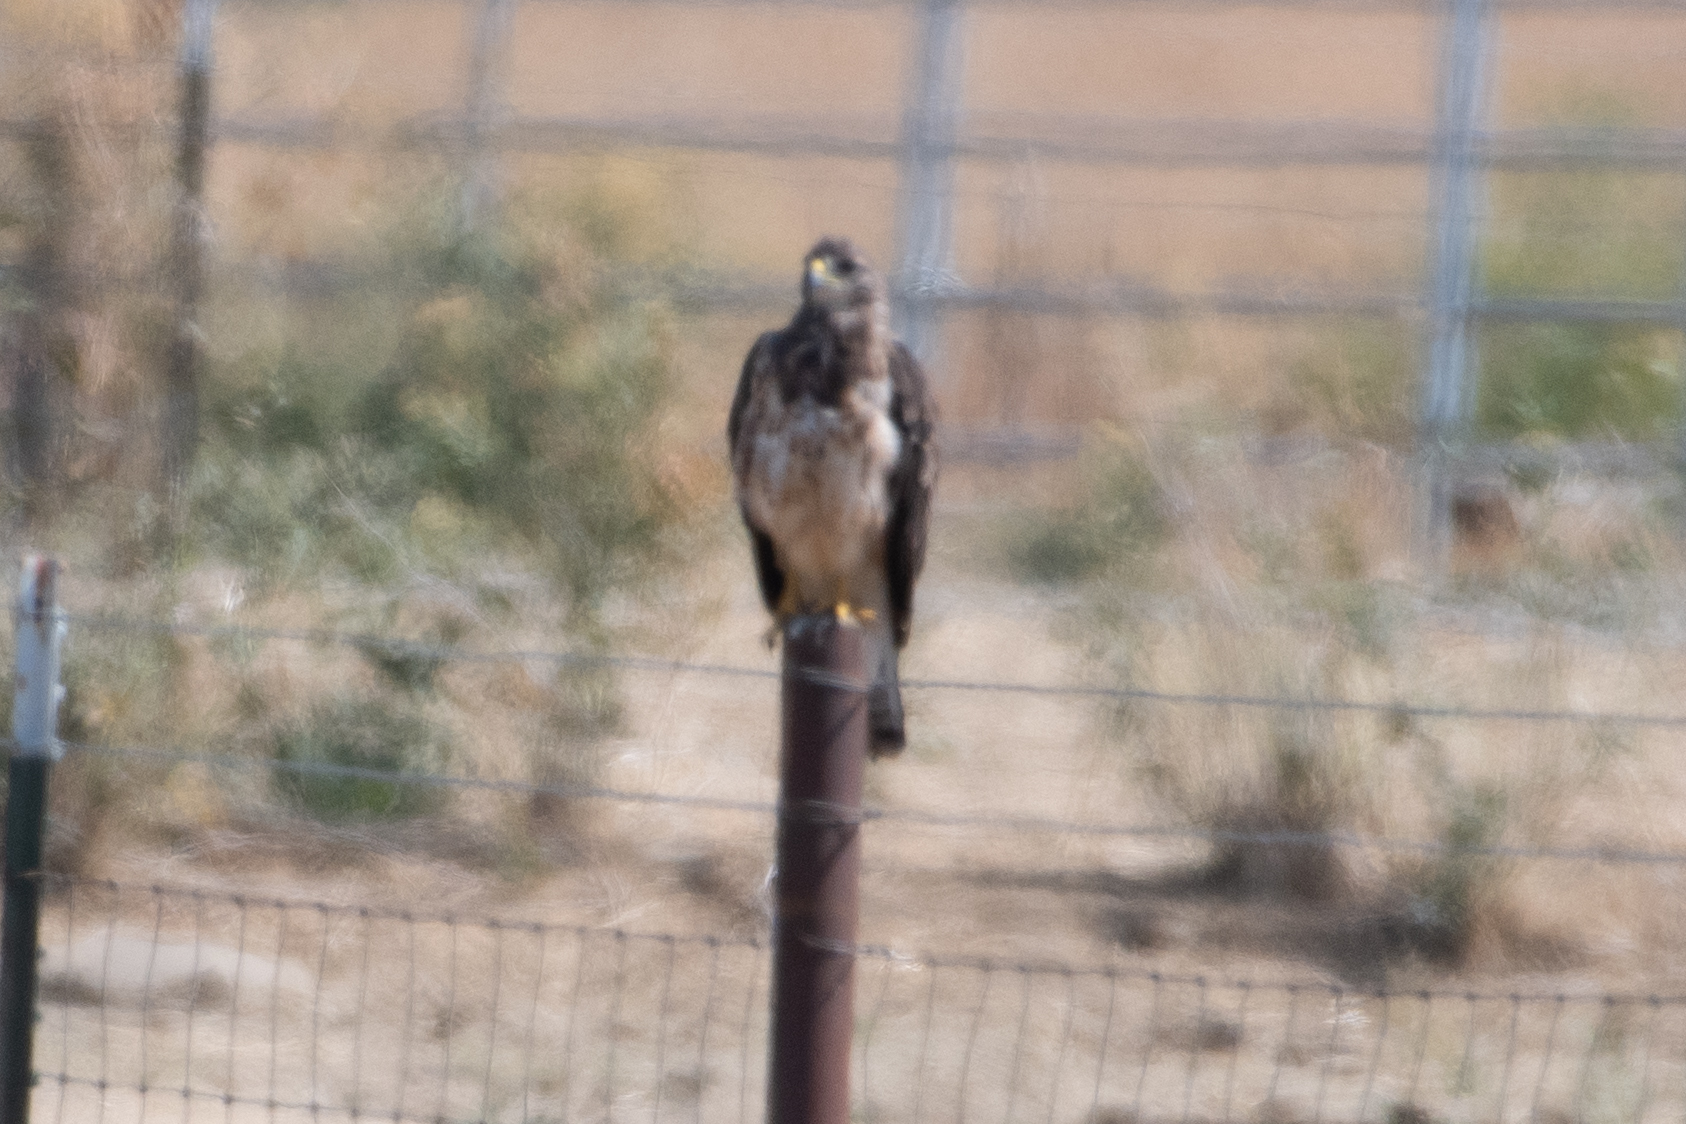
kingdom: Animalia
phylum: Chordata
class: Aves
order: Accipitriformes
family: Accipitridae
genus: Buteo
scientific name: Buteo swainsoni
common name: Swainson's hawk
